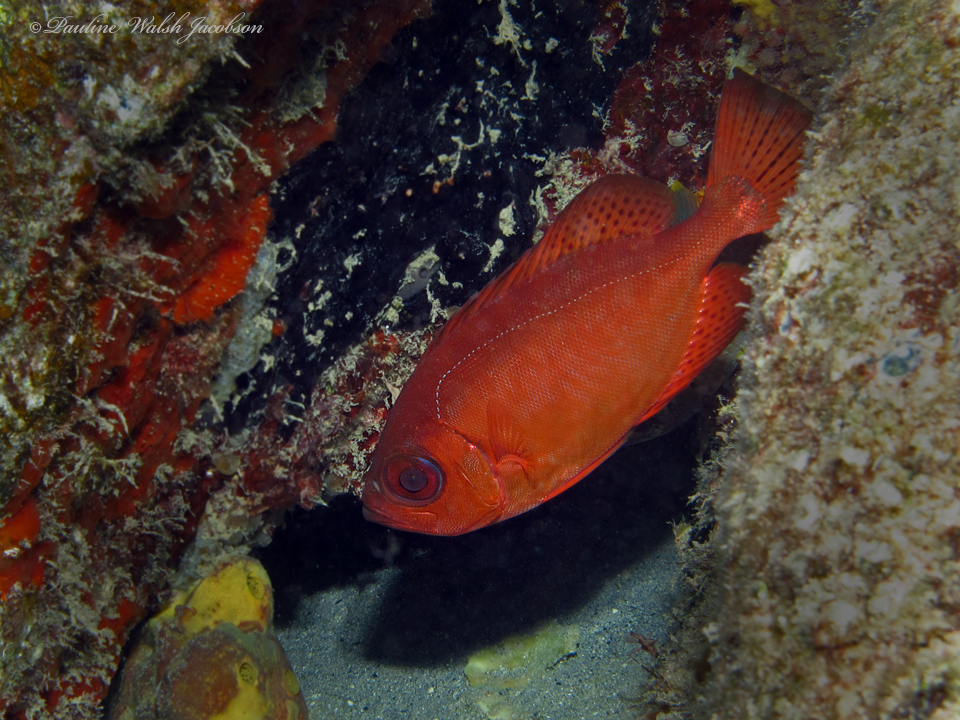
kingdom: Animalia
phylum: Chordata
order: Perciformes
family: Priacanthidae
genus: Heteropriacanthus
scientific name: Heteropriacanthus cruentatus
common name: Glasseye
